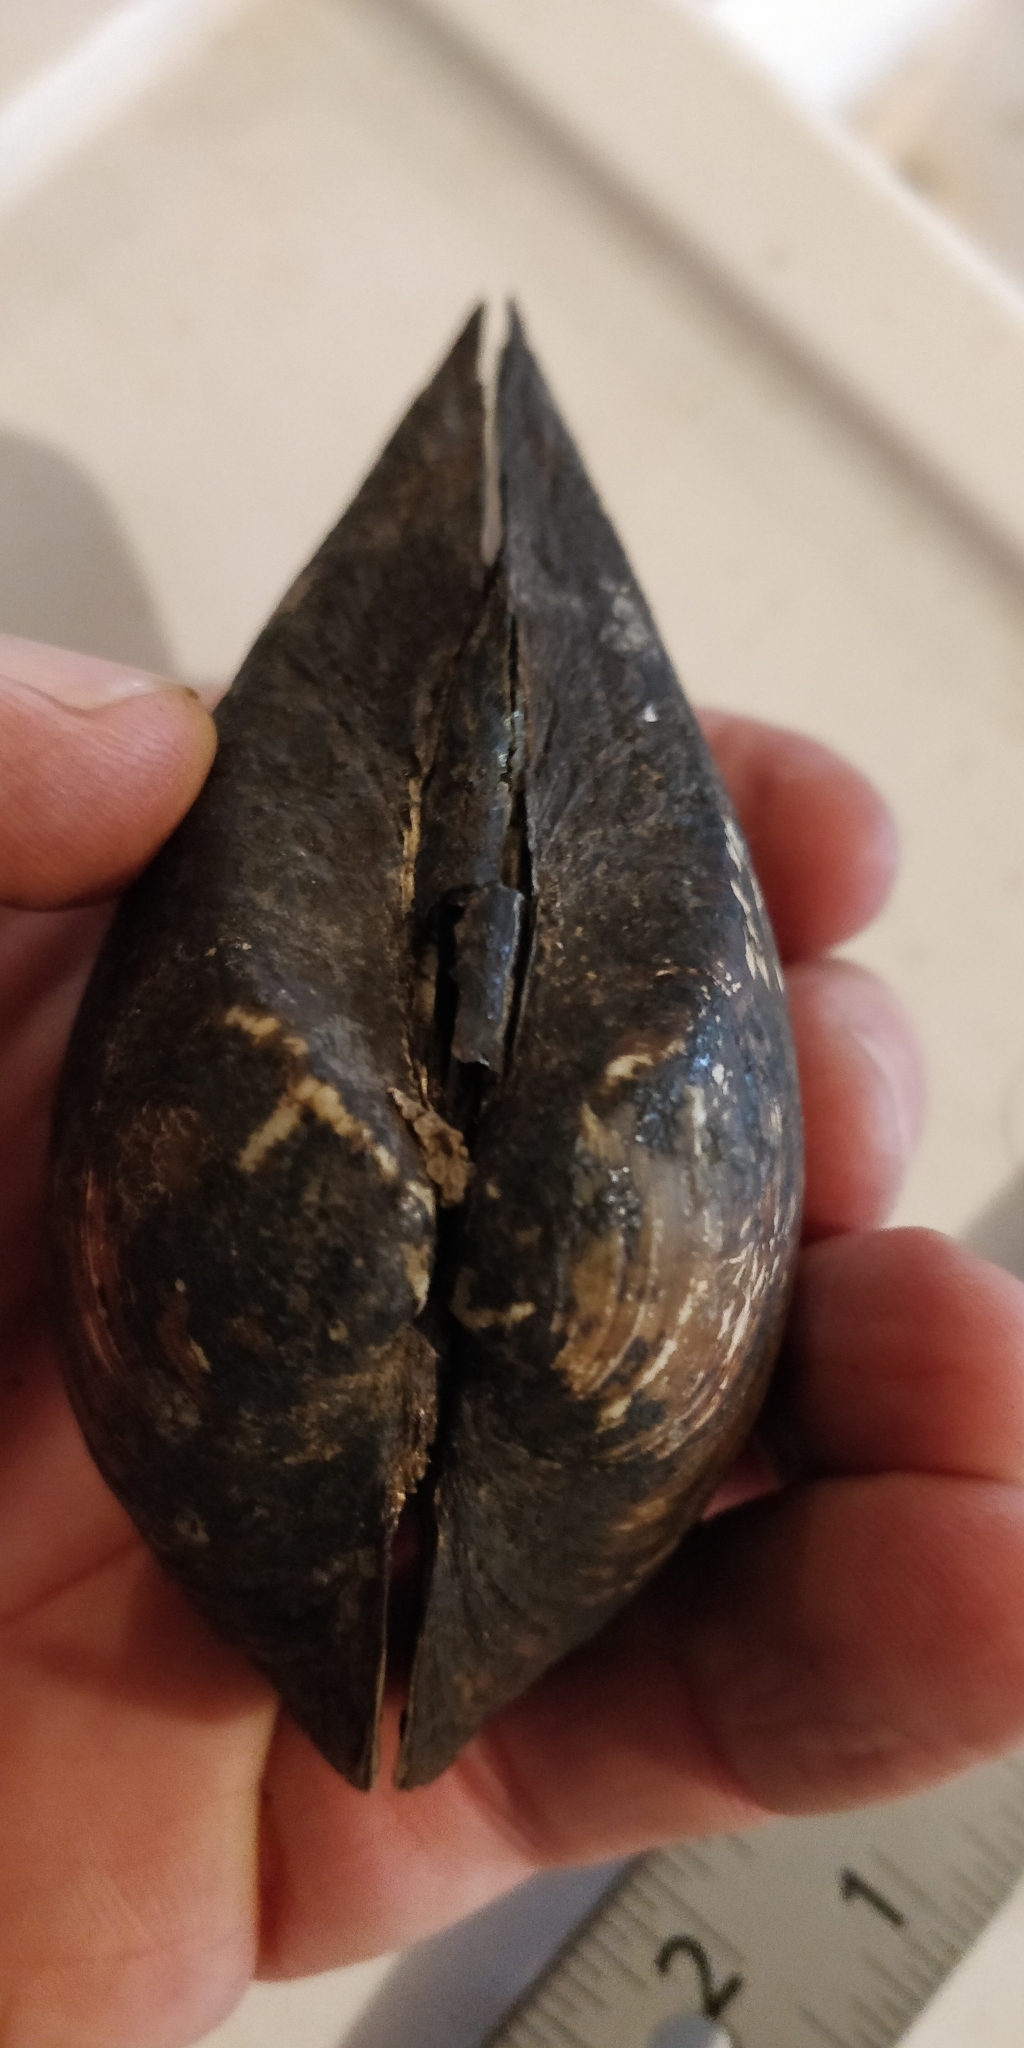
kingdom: Animalia
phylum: Mollusca
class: Bivalvia
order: Unionida
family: Unionidae
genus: Truncilla
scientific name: Truncilla truncata
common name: Deertoe
